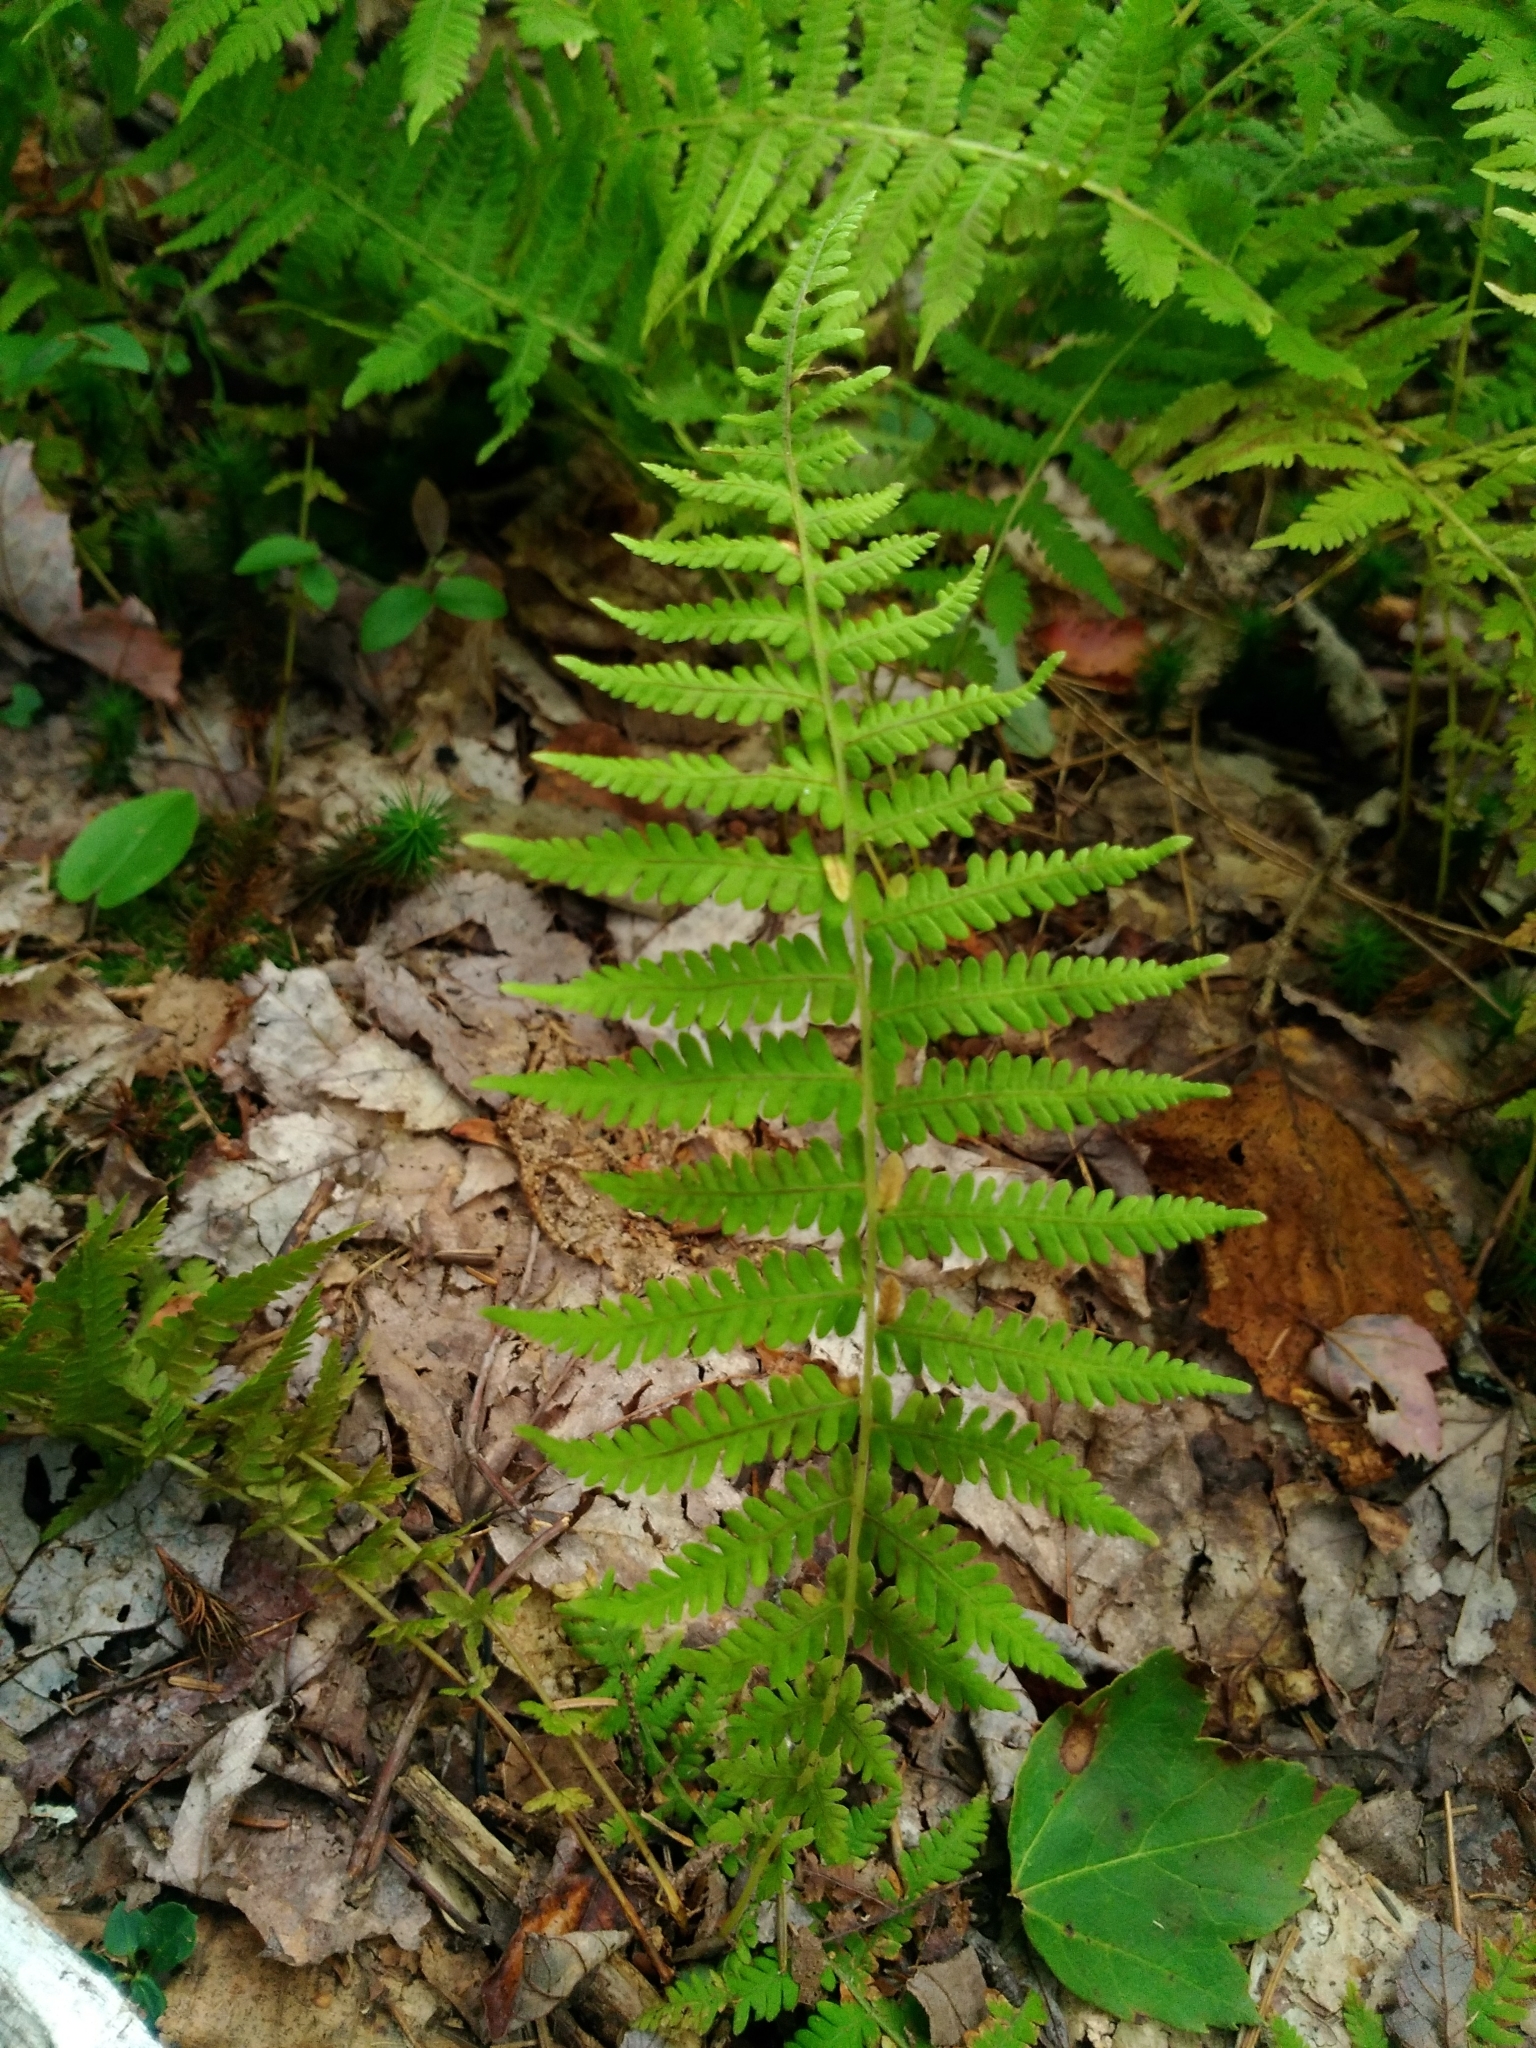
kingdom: Plantae
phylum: Tracheophyta
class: Polypodiopsida
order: Polypodiales
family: Thelypteridaceae
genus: Amauropelta
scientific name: Amauropelta noveboracensis
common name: New york fern
